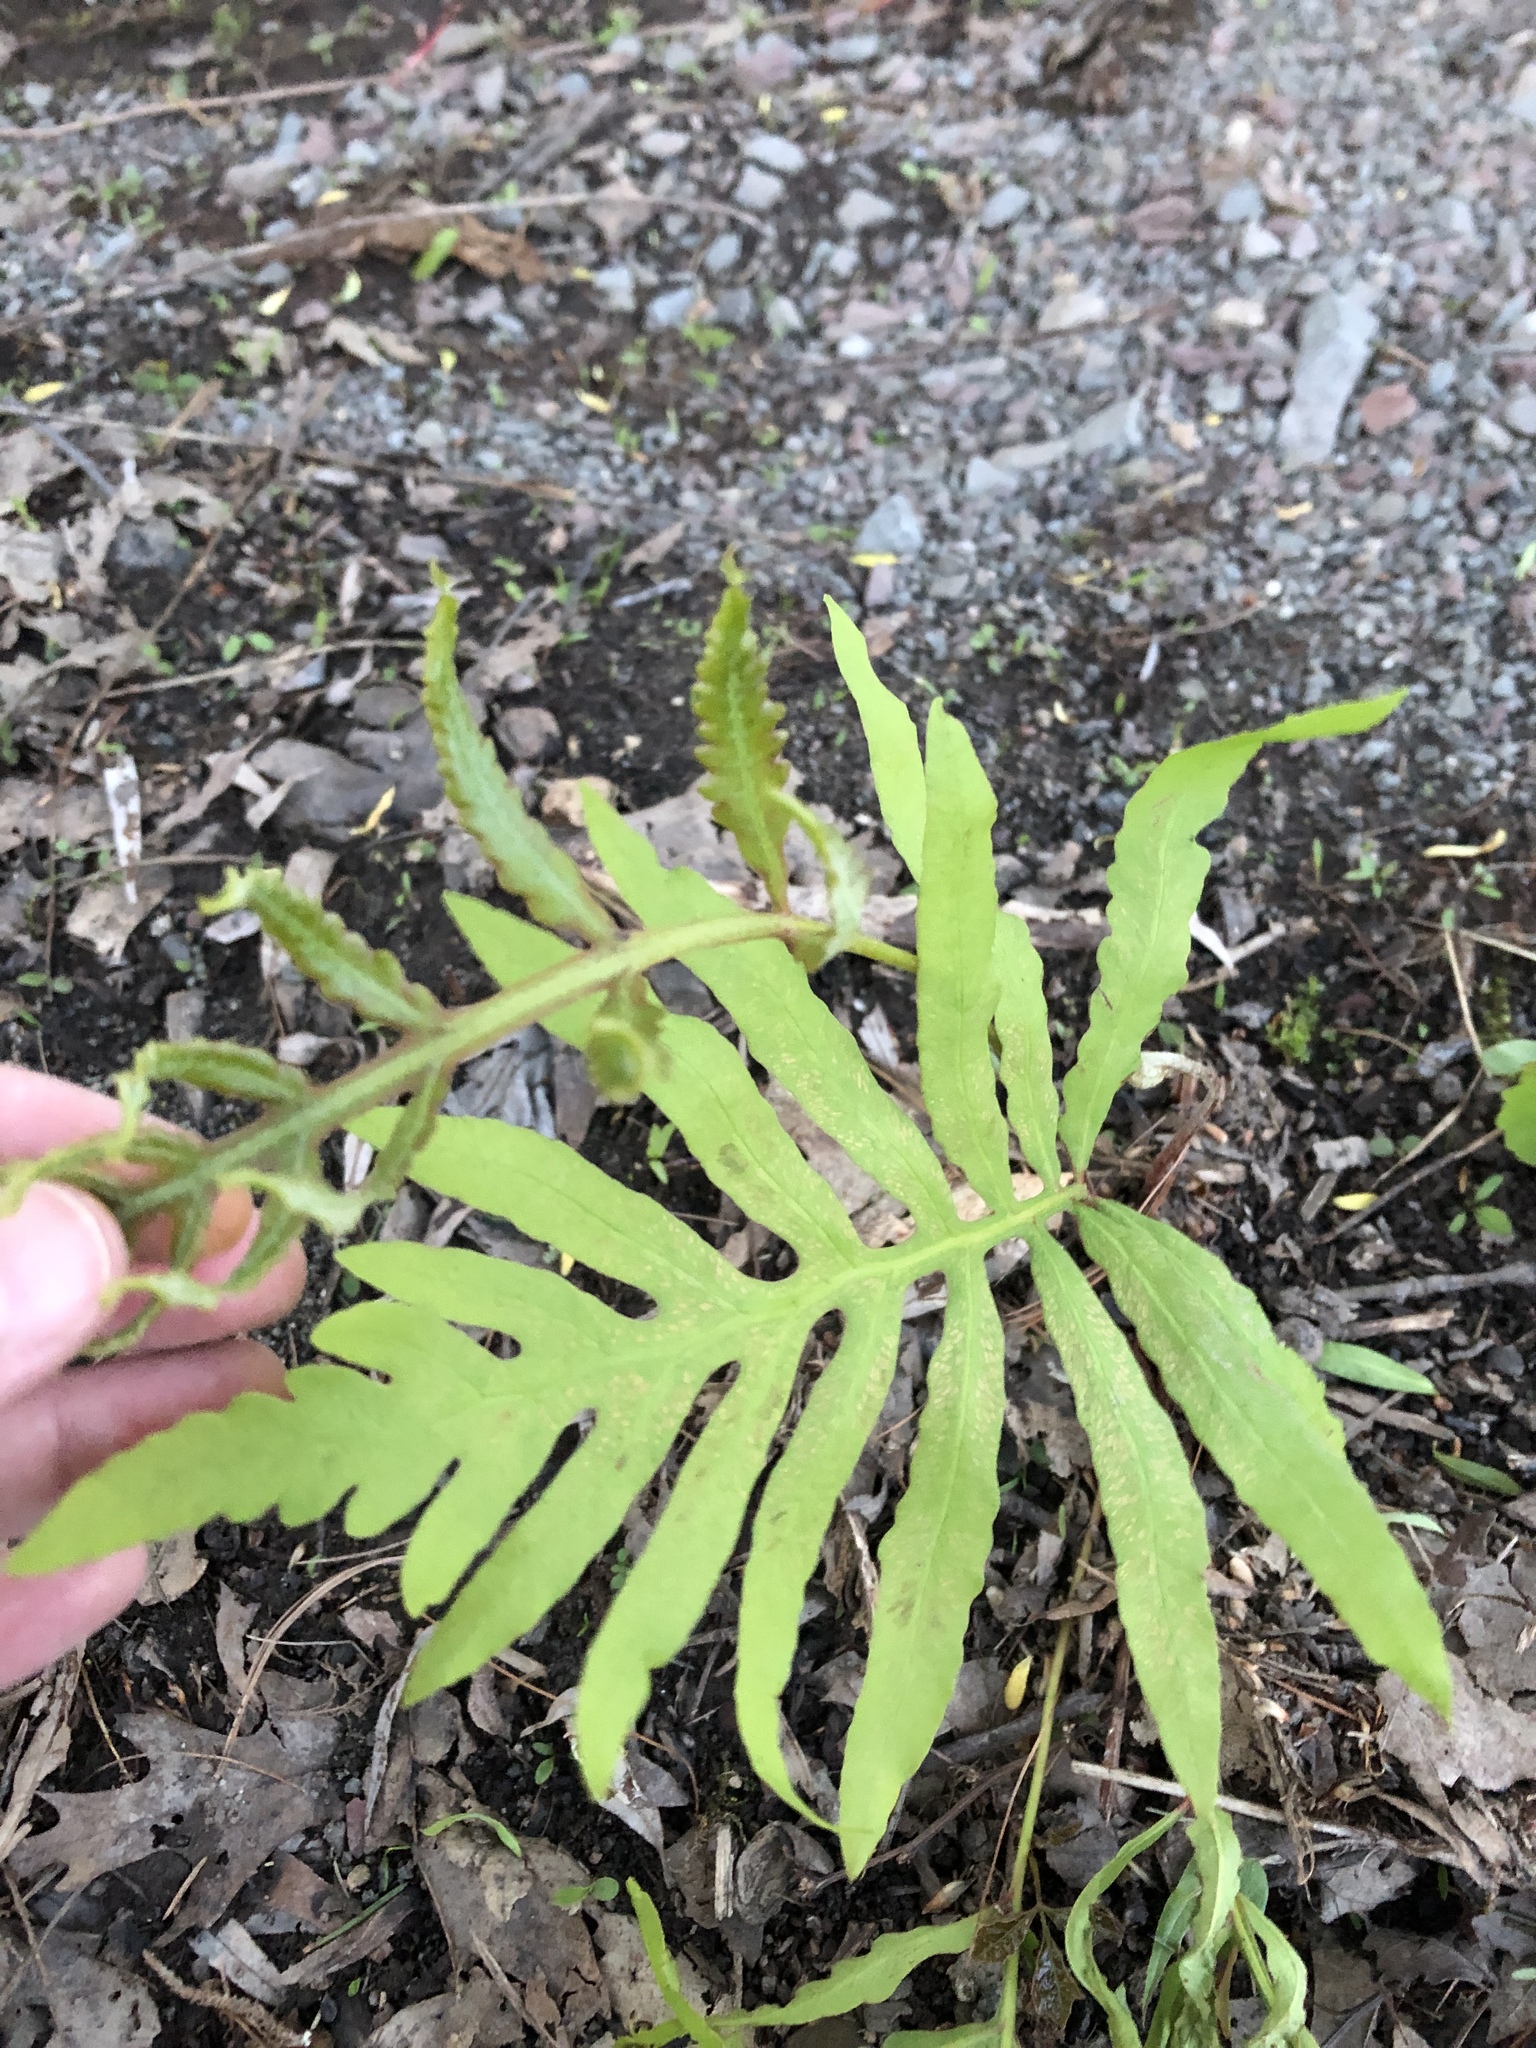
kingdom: Plantae
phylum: Tracheophyta
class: Polypodiopsida
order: Polypodiales
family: Onocleaceae
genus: Onoclea
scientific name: Onoclea sensibilis
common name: Sensitive fern
